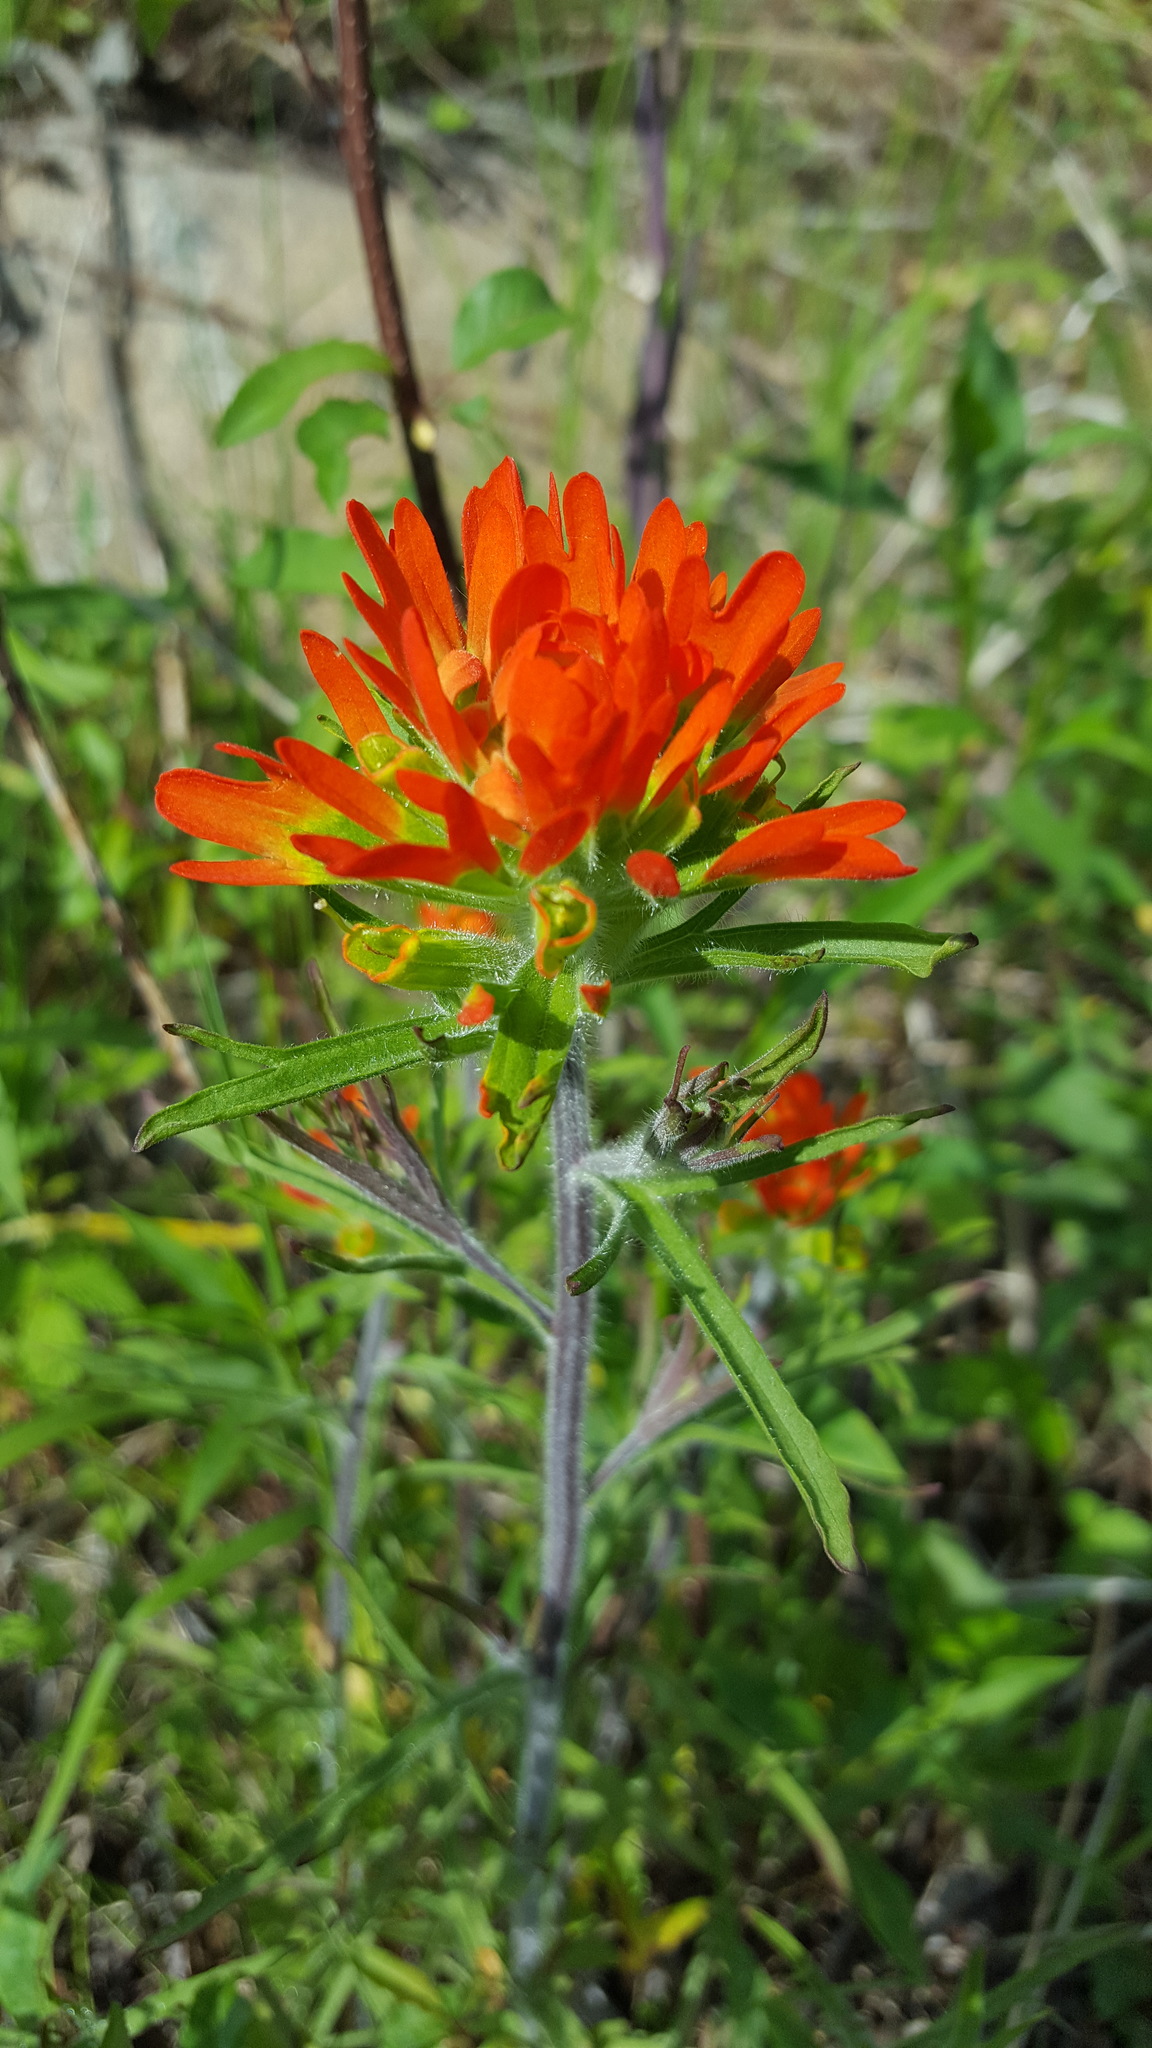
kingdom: Plantae
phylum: Tracheophyta
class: Magnoliopsida
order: Lamiales
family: Orobanchaceae
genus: Castilleja
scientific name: Castilleja coccinea
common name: Scarlet paintbrush
